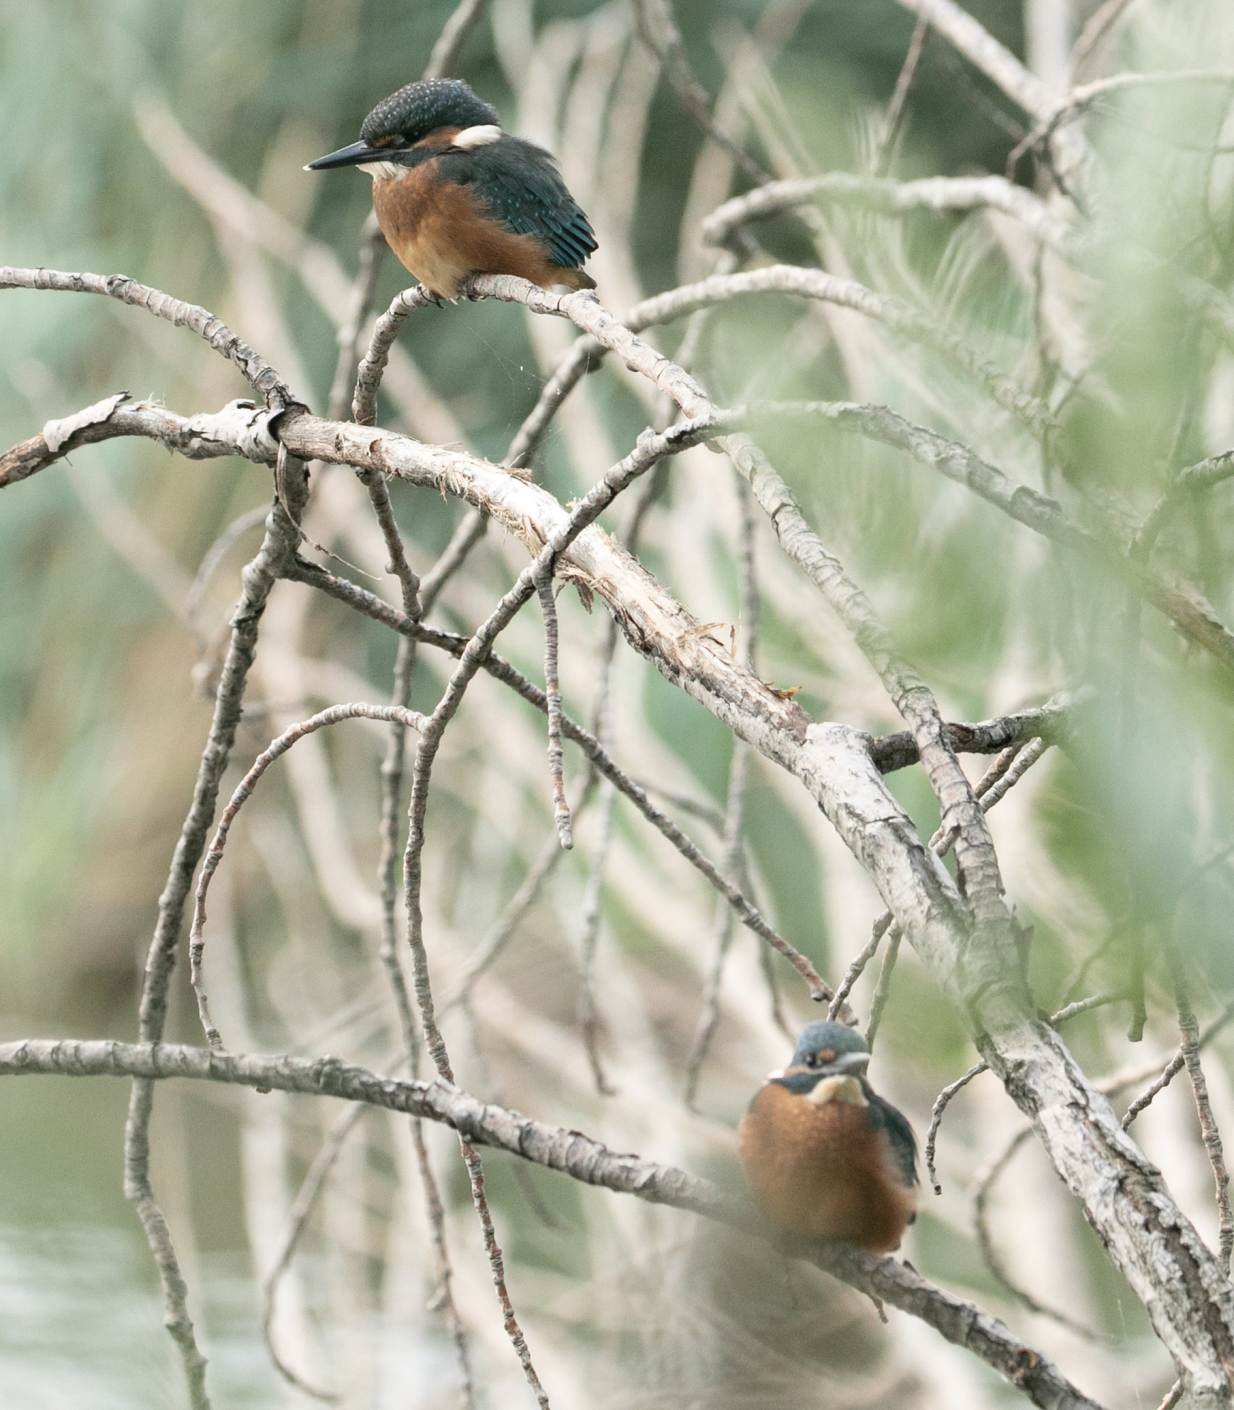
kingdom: Animalia
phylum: Chordata
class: Aves
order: Coraciiformes
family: Alcedinidae
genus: Alcedo
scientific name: Alcedo atthis
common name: Common kingfisher
